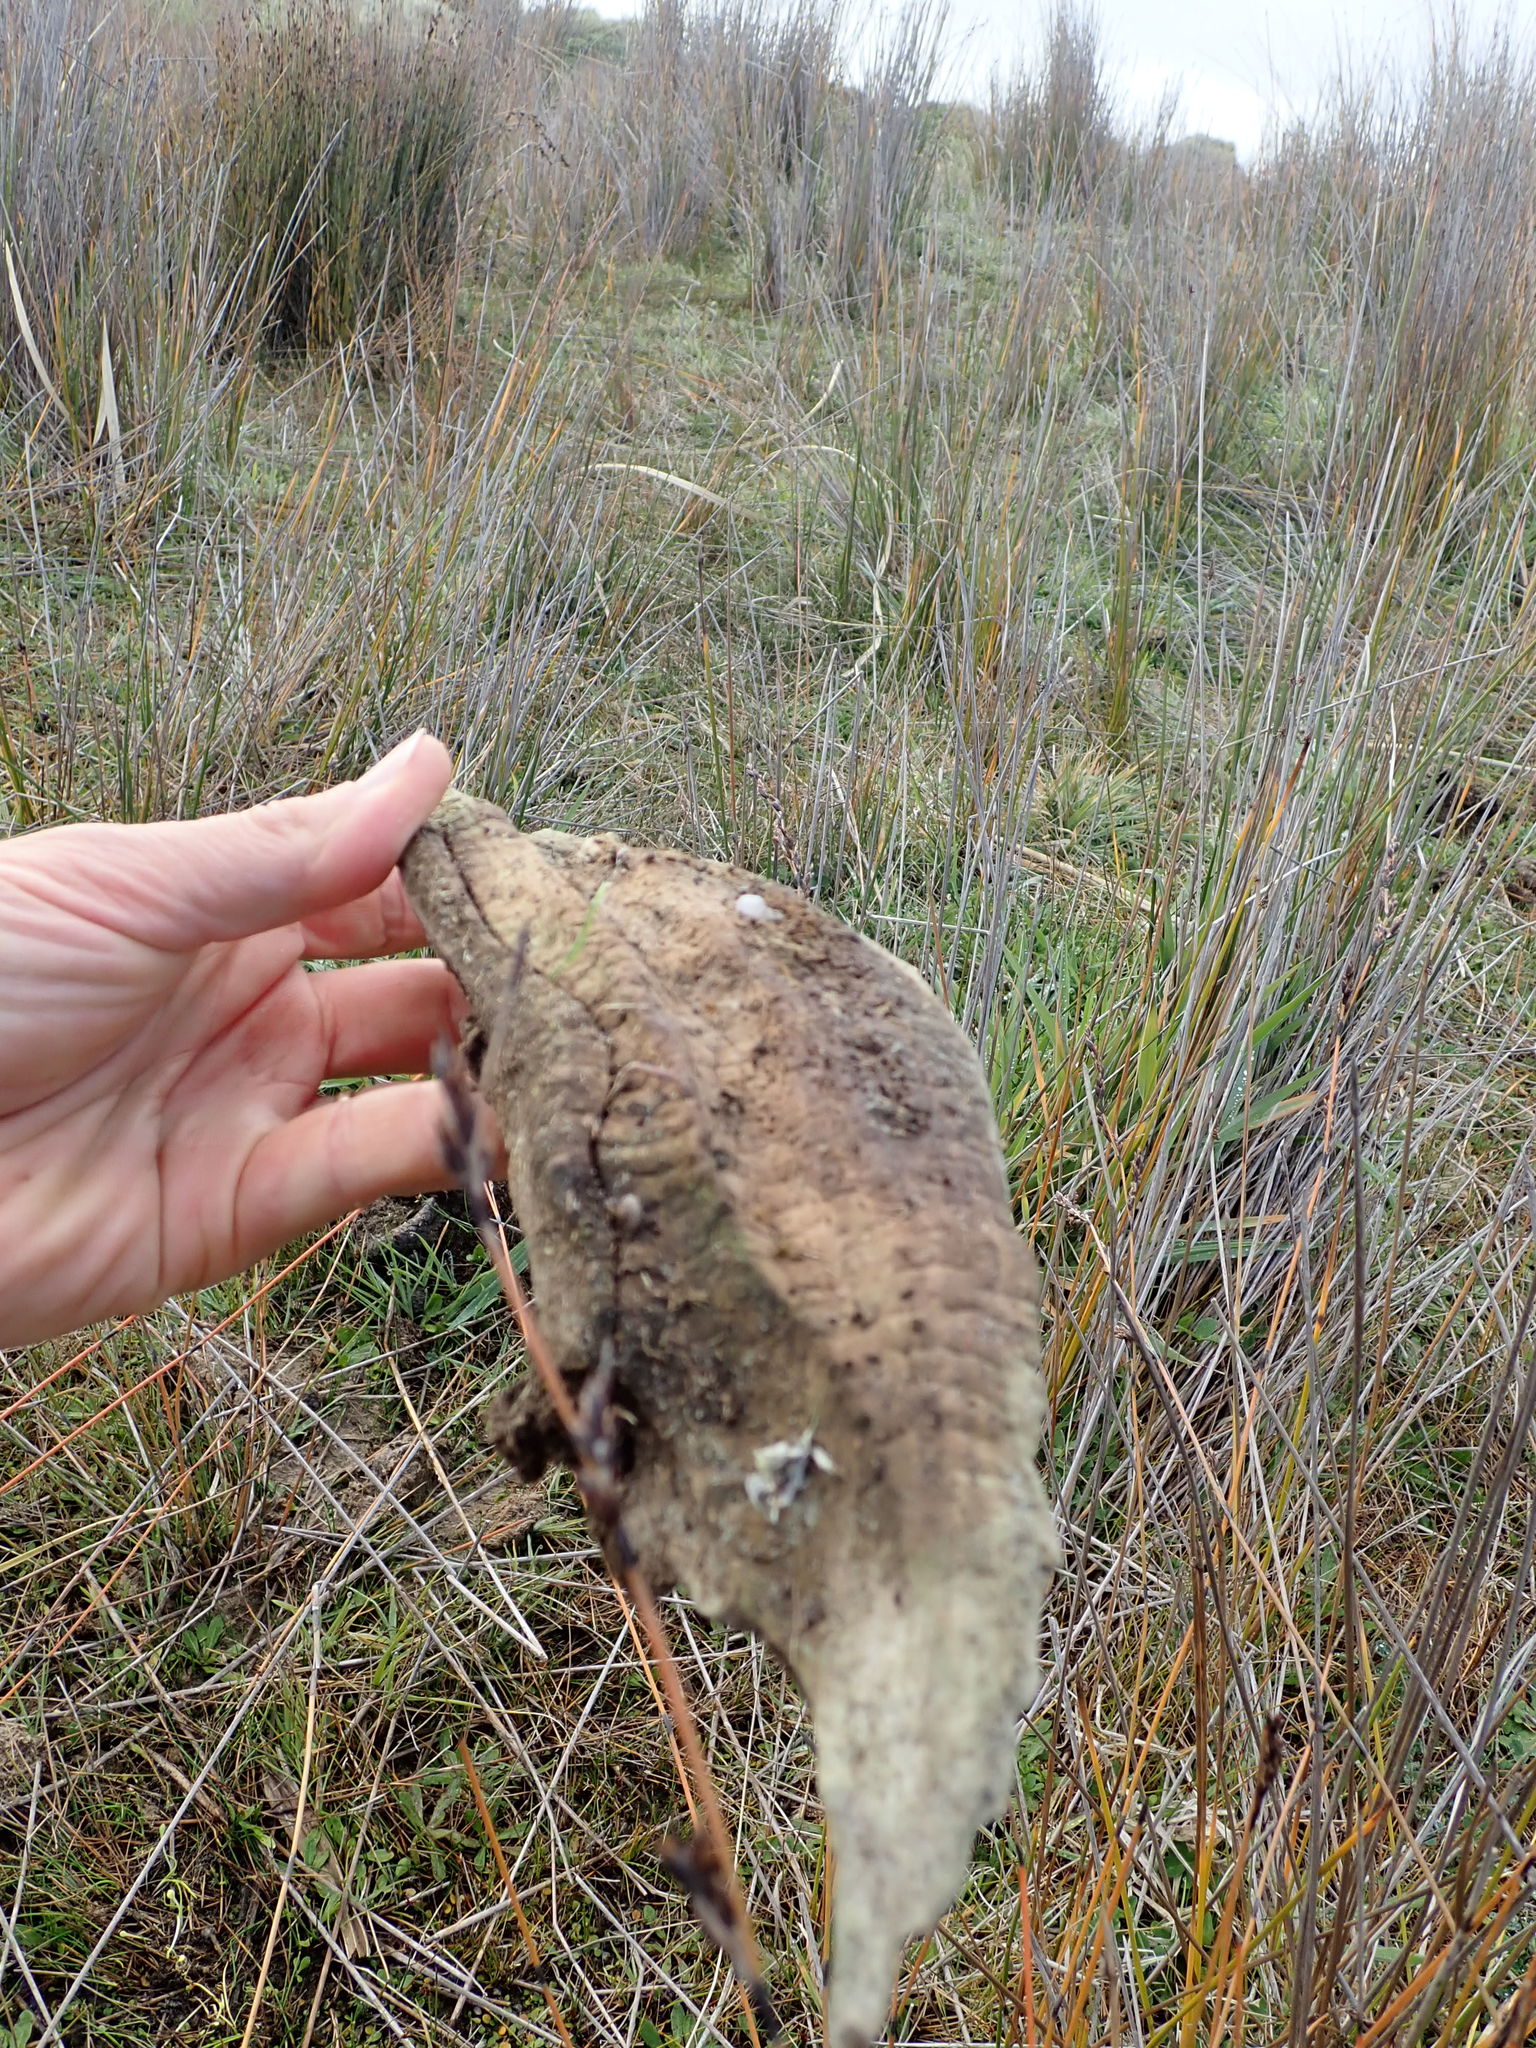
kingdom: Animalia
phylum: Mollusca
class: Gastropoda
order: Stylommatophora
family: Geomitridae
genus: Xeroplexa
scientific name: Xeroplexa intersecta
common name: Wrinkled snail
